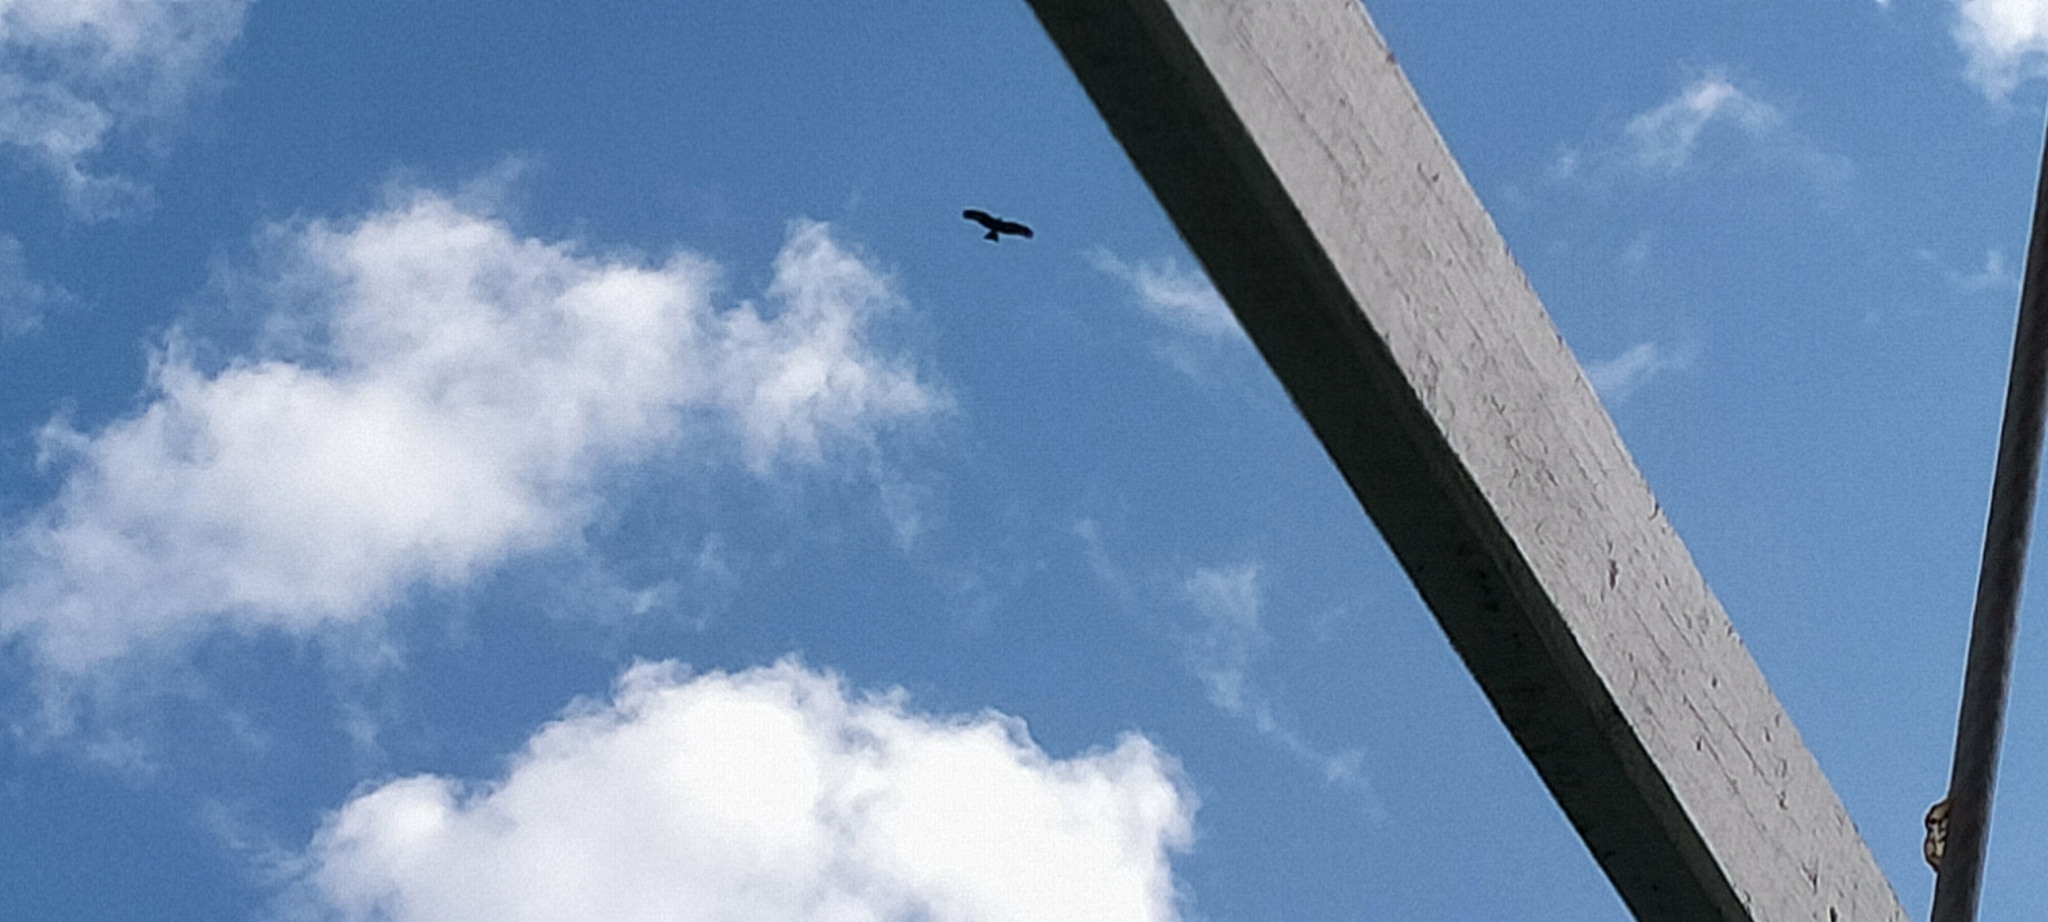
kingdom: Animalia
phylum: Chordata
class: Aves
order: Accipitriformes
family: Accipitridae
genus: Milvus
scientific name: Milvus migrans
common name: Black kite
